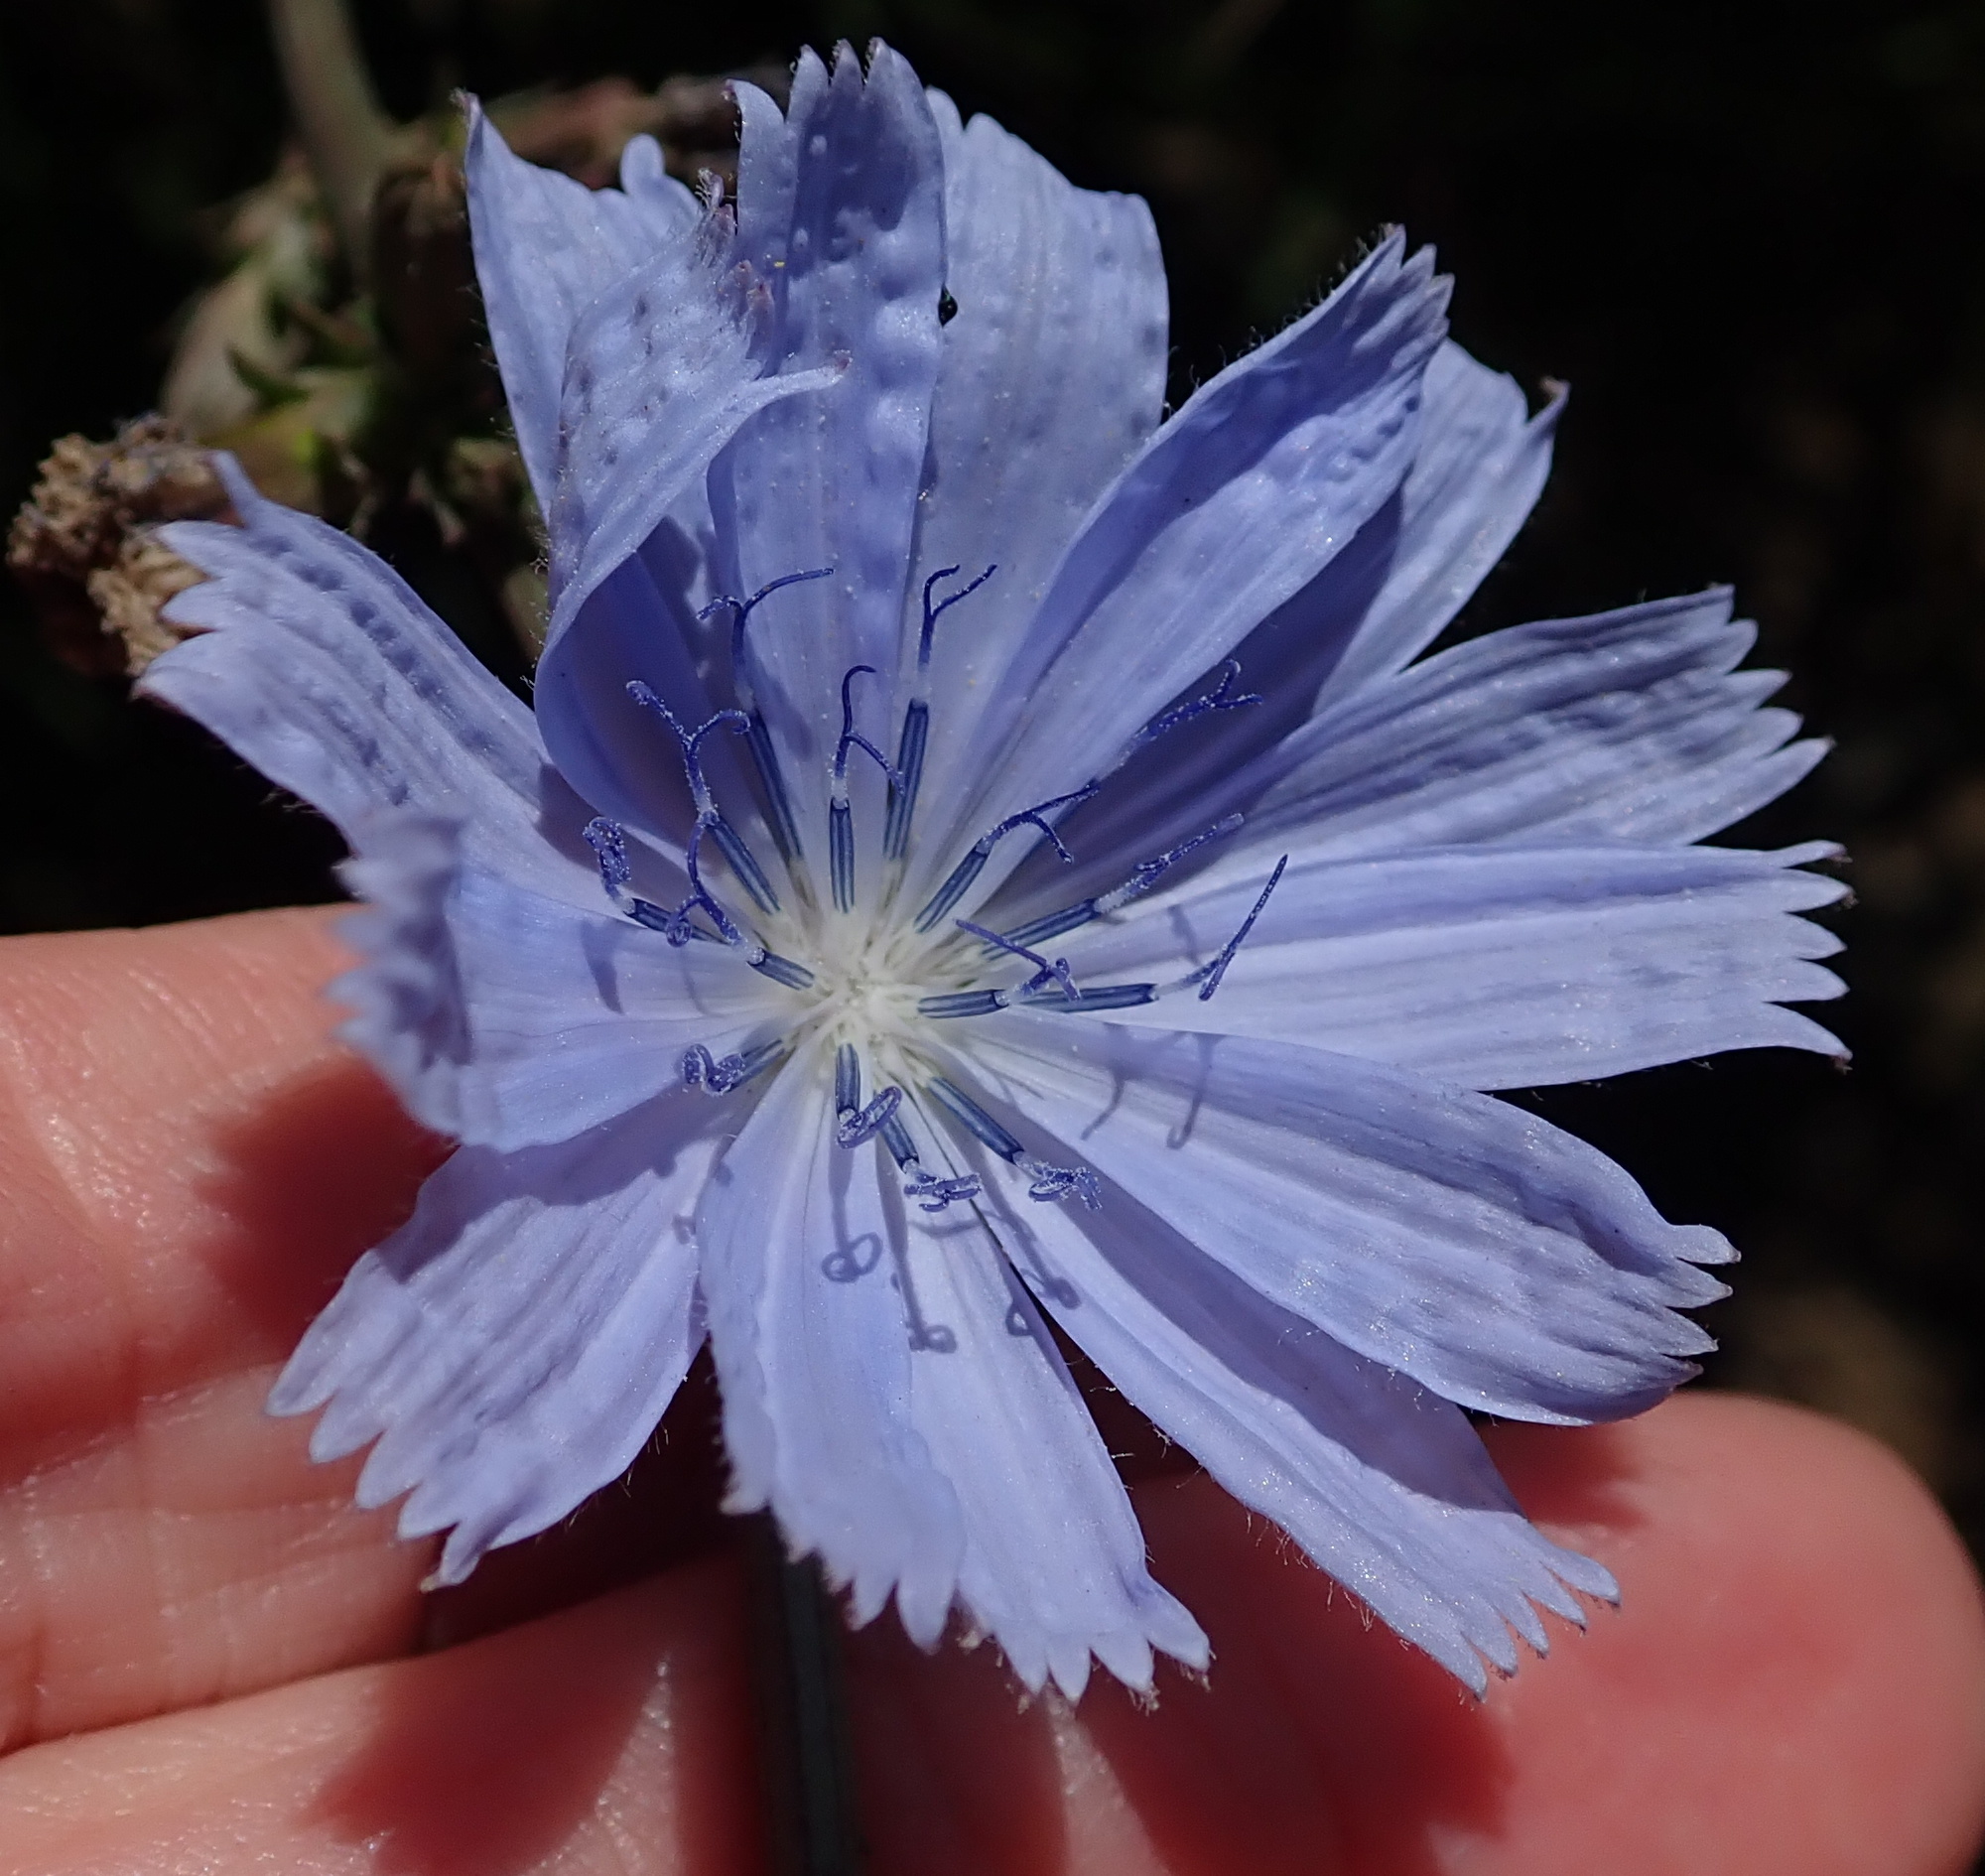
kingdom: Plantae
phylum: Tracheophyta
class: Magnoliopsida
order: Asterales
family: Asteraceae
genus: Cichorium
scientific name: Cichorium intybus
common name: Chicory
